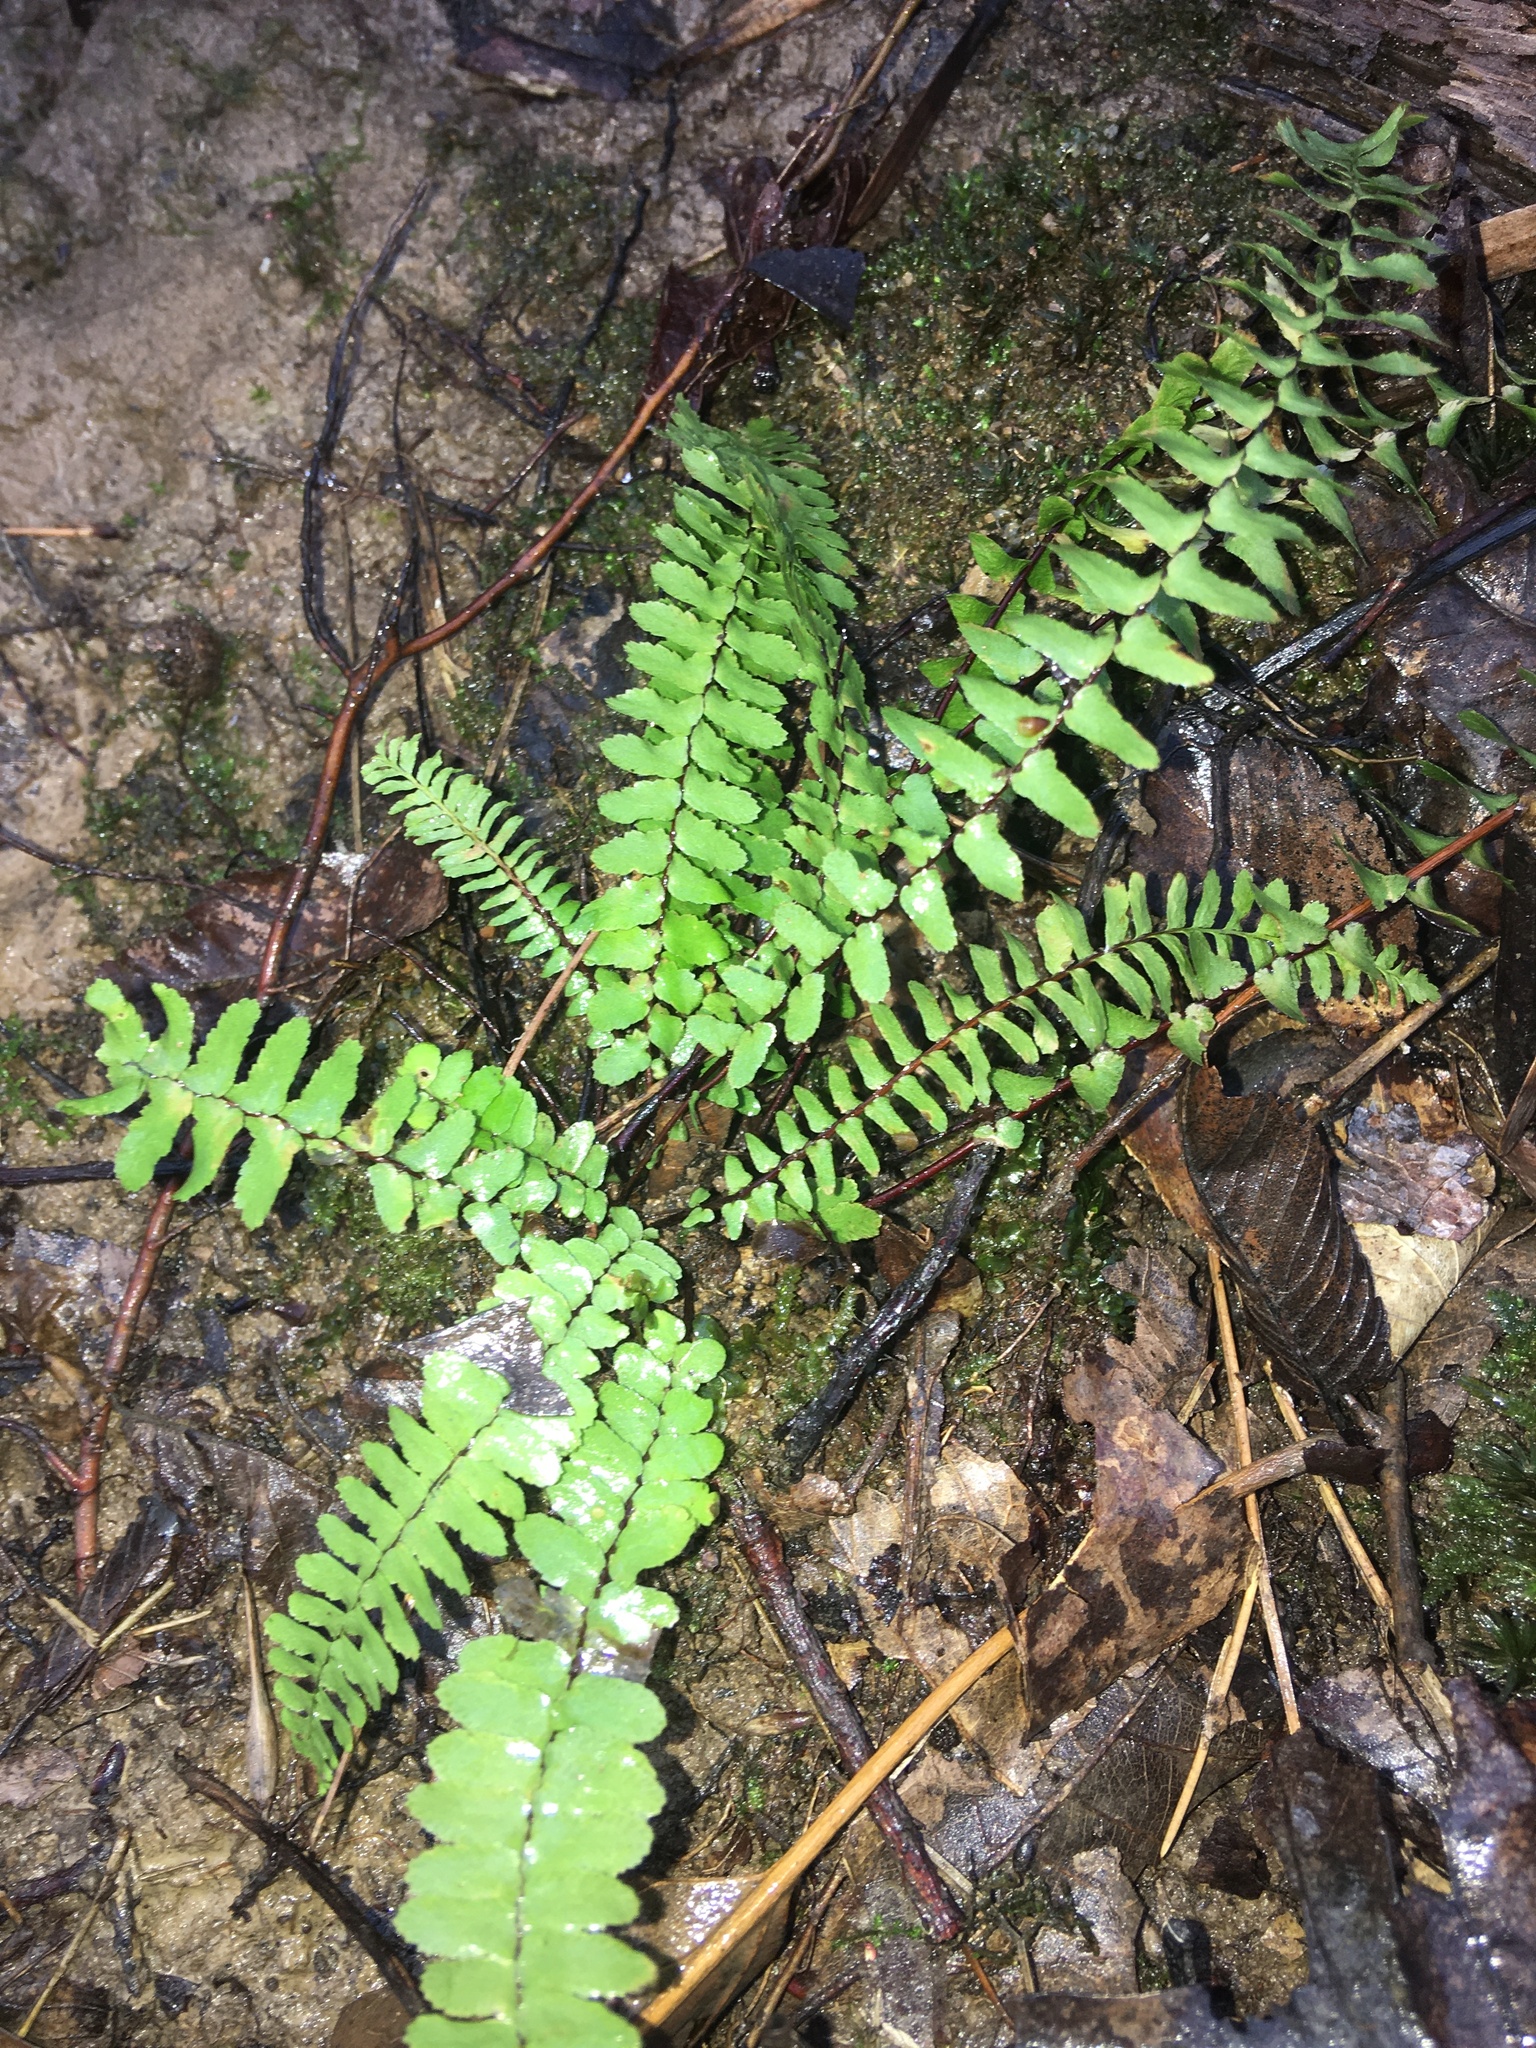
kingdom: Plantae
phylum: Tracheophyta
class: Polypodiopsida
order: Polypodiales
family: Aspleniaceae
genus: Asplenium
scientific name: Asplenium platyneuron
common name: Ebony spleenwort
